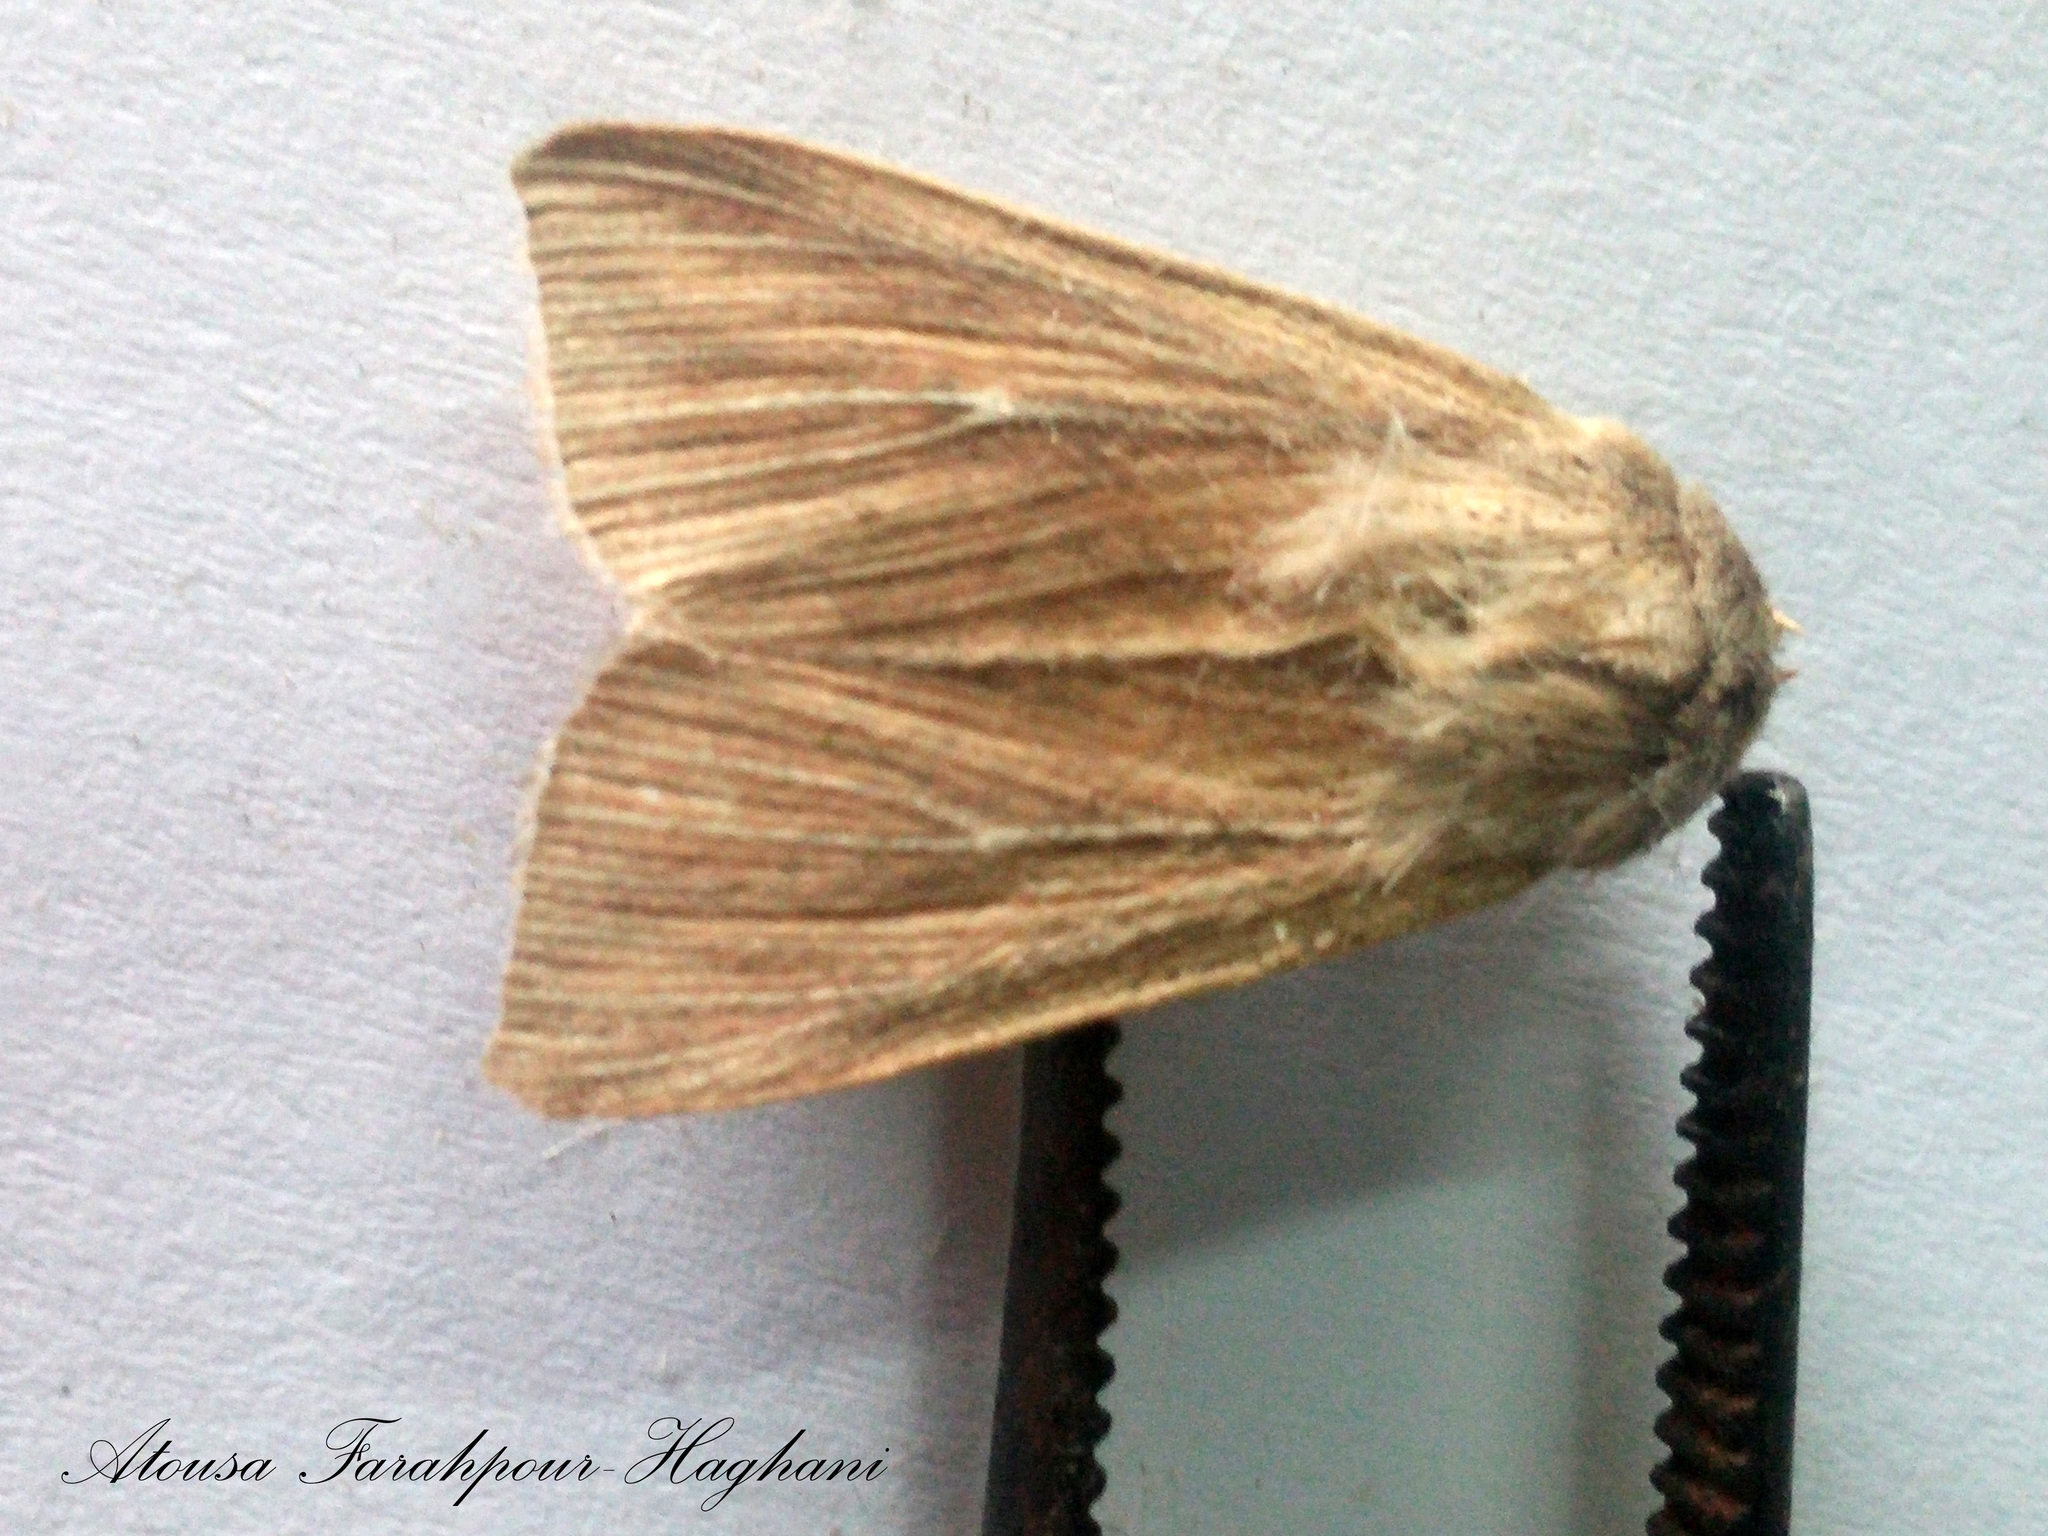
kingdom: Animalia
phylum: Arthropoda
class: Insecta
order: Lepidoptera
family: Noctuidae
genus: Leucania
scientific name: Leucania loreyi
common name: The cosmopolitan
